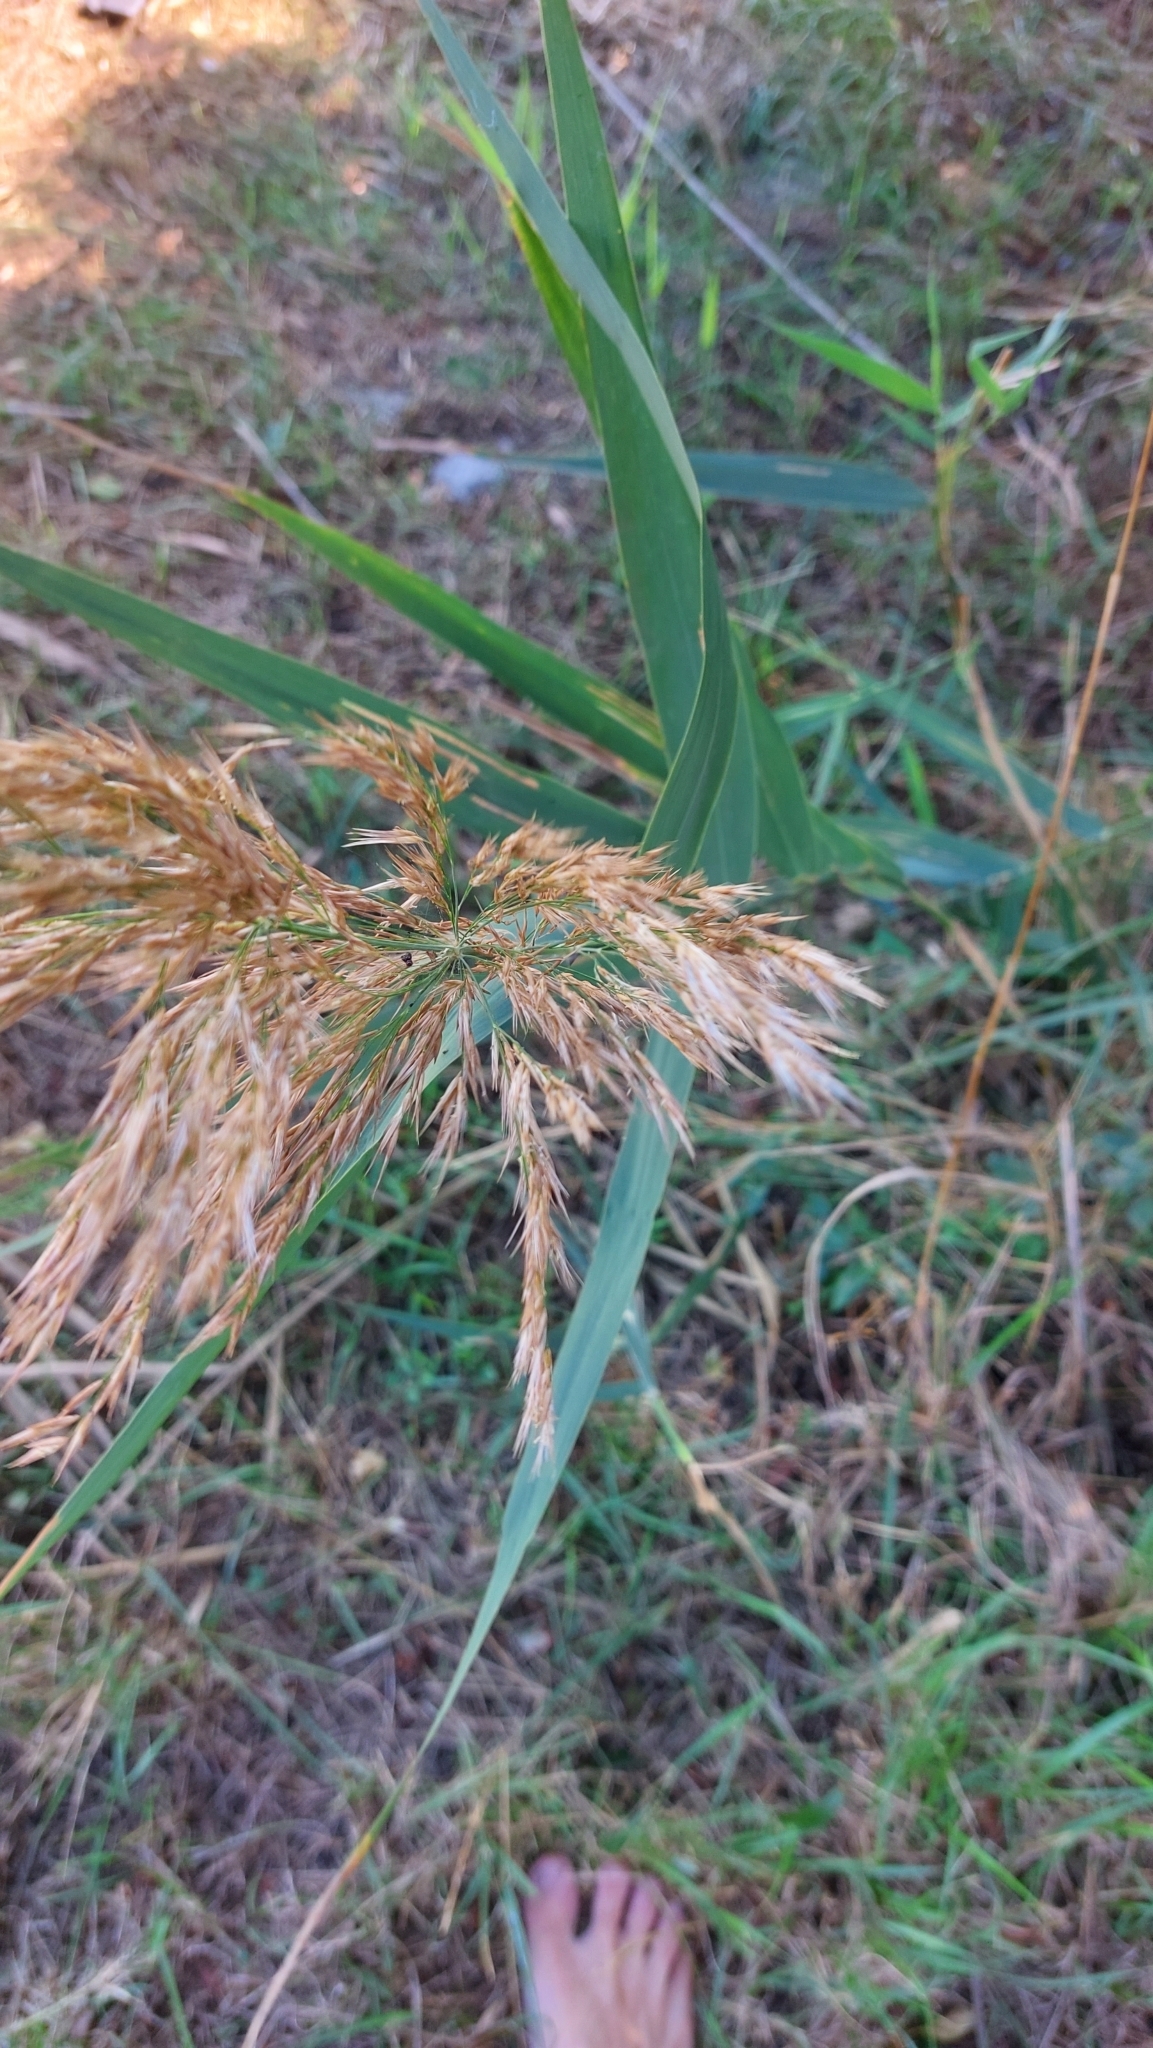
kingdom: Plantae
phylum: Tracheophyta
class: Liliopsida
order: Poales
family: Poaceae
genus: Phragmites
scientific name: Phragmites australis
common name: Common reed
